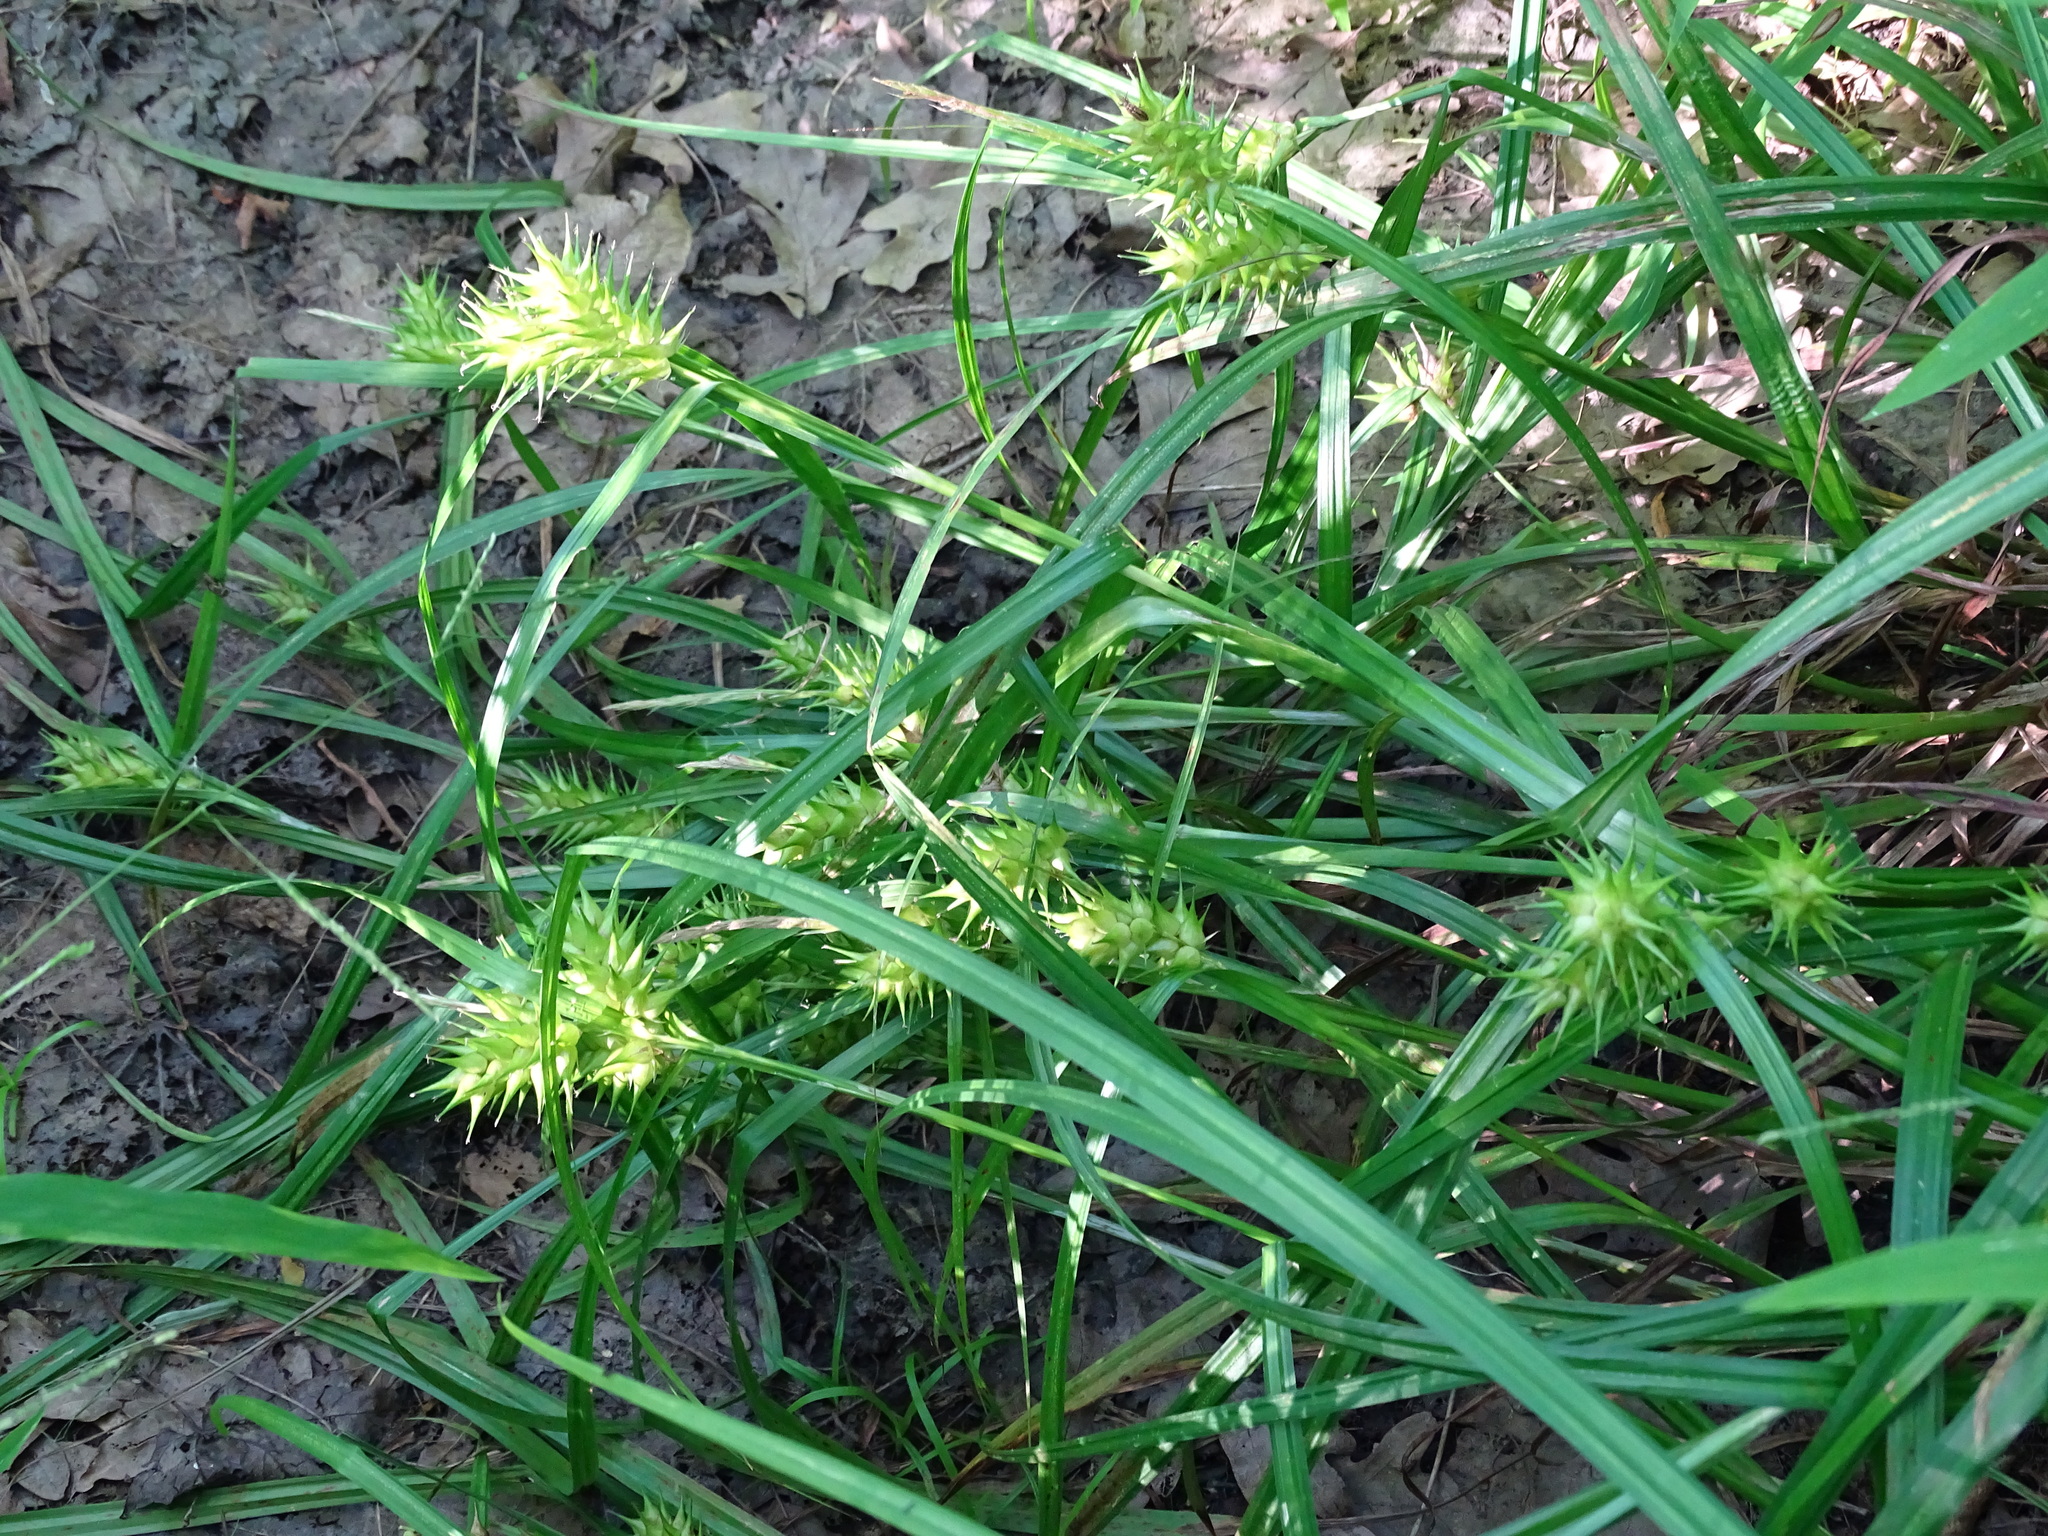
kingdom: Plantae
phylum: Tracheophyta
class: Liliopsida
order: Poales
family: Cyperaceae
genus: Carex
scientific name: Carex lupulina
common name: Hop sedge
